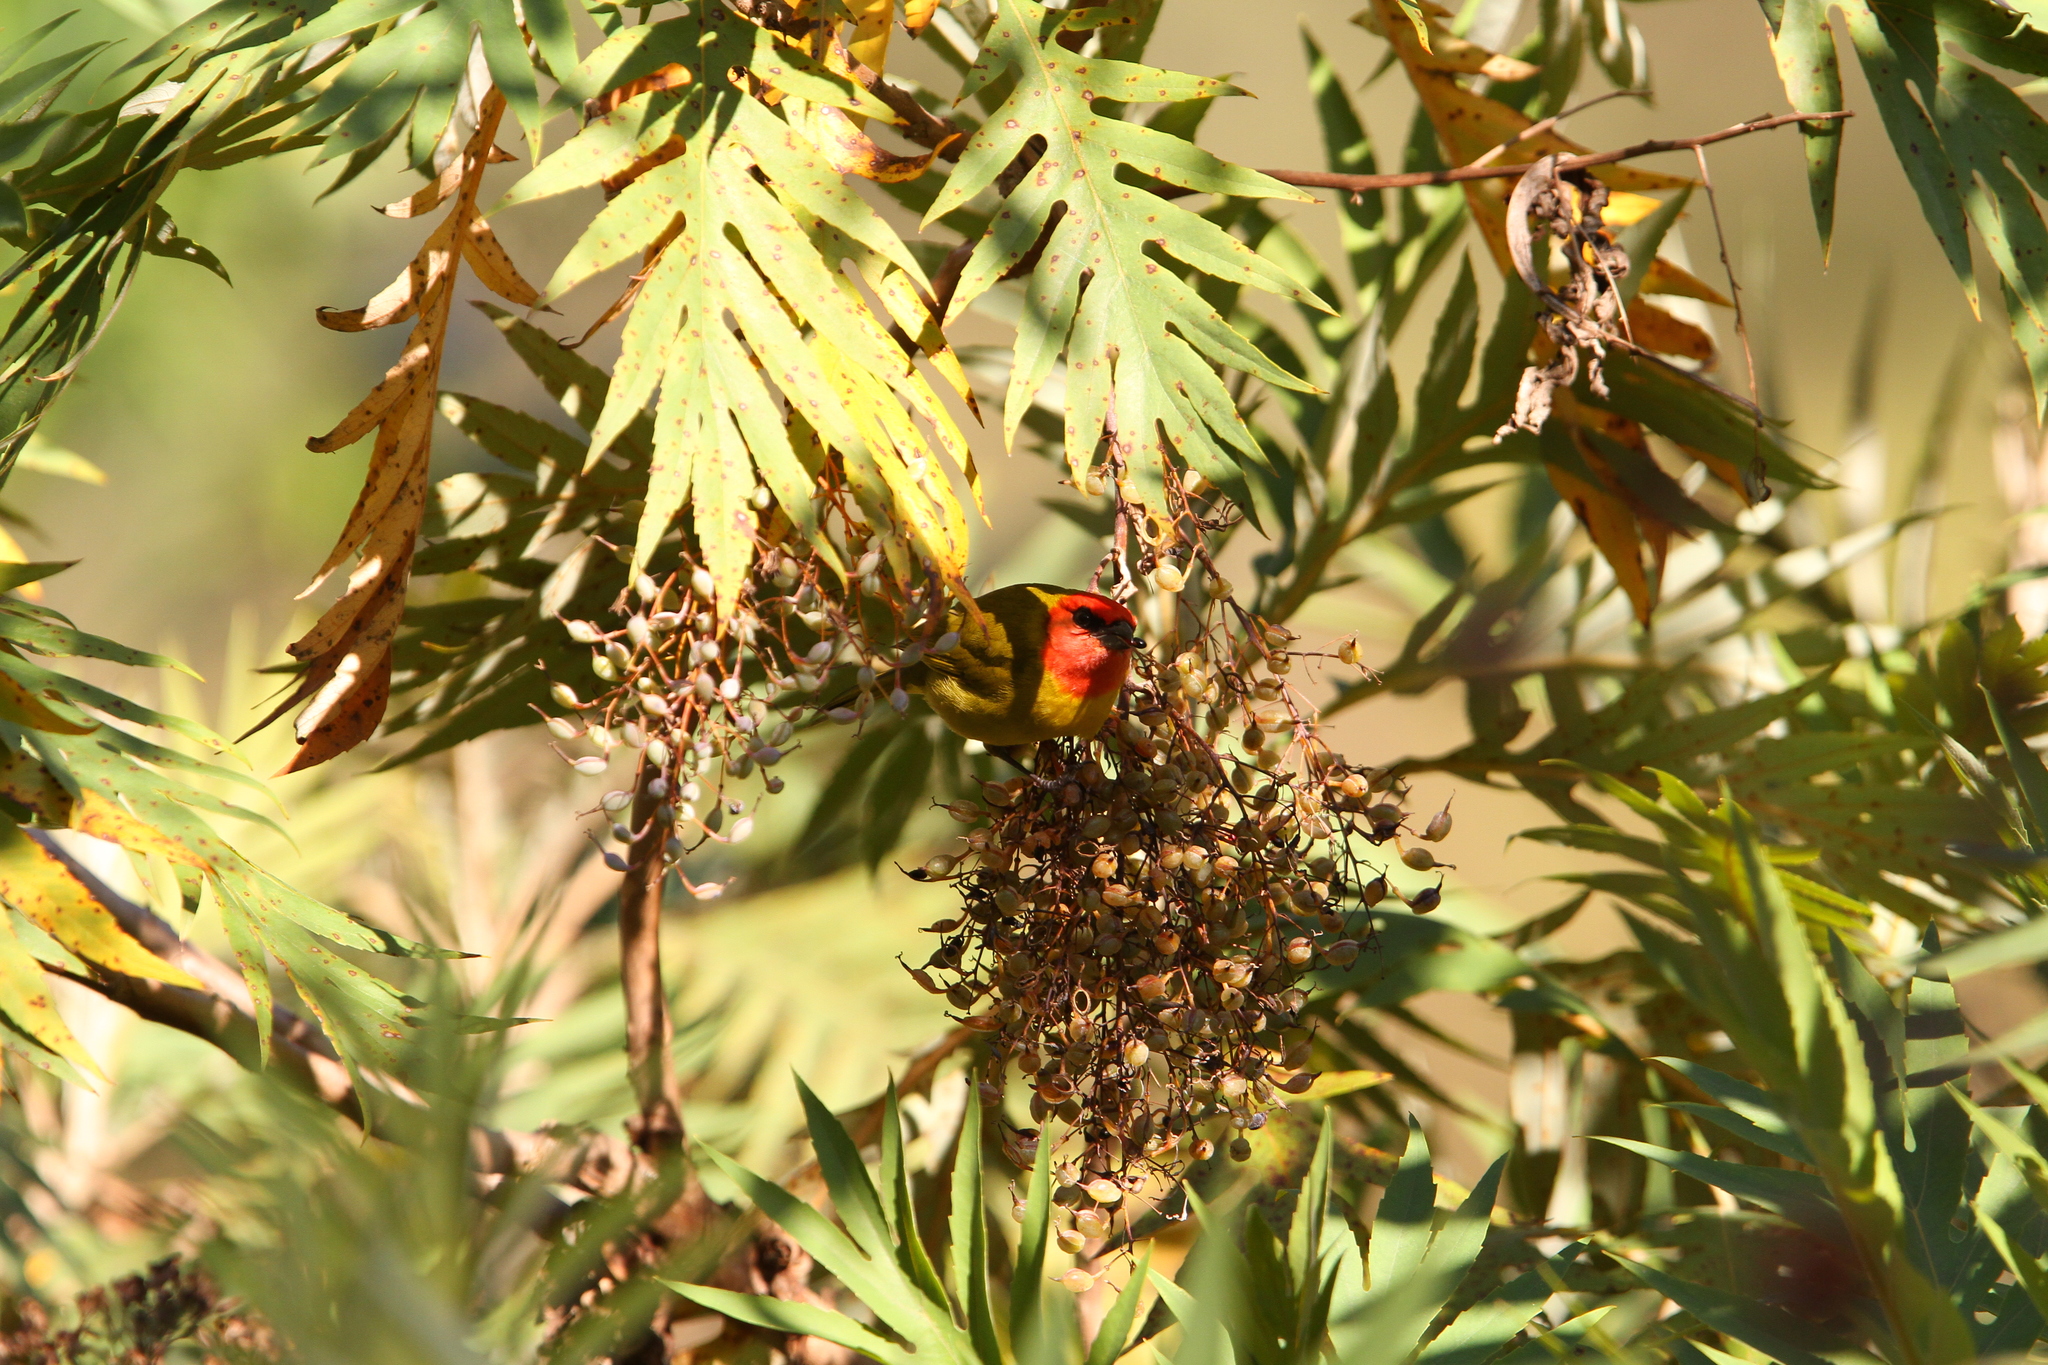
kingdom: Animalia
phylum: Chordata
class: Aves
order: Passeriformes
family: Cardinalidae
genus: Piranga
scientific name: Piranga erythrocephala
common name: Red-headed tanager
